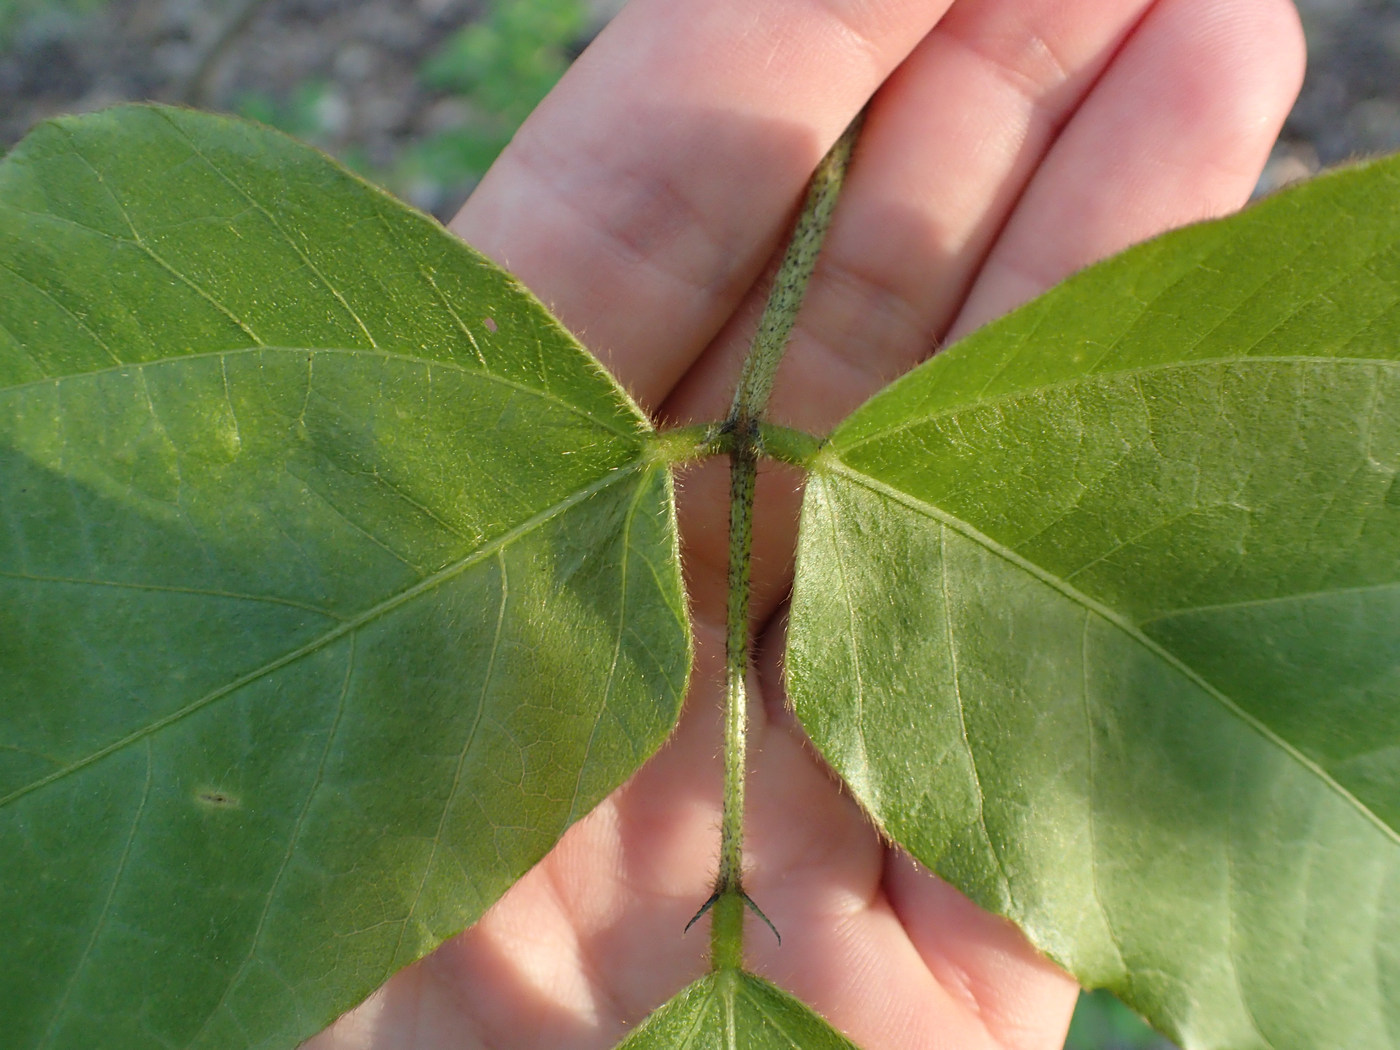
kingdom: Plantae
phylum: Tracheophyta
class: Magnoliopsida
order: Fabales
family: Fabaceae
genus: Pueraria
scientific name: Pueraria montana
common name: Kudzu
